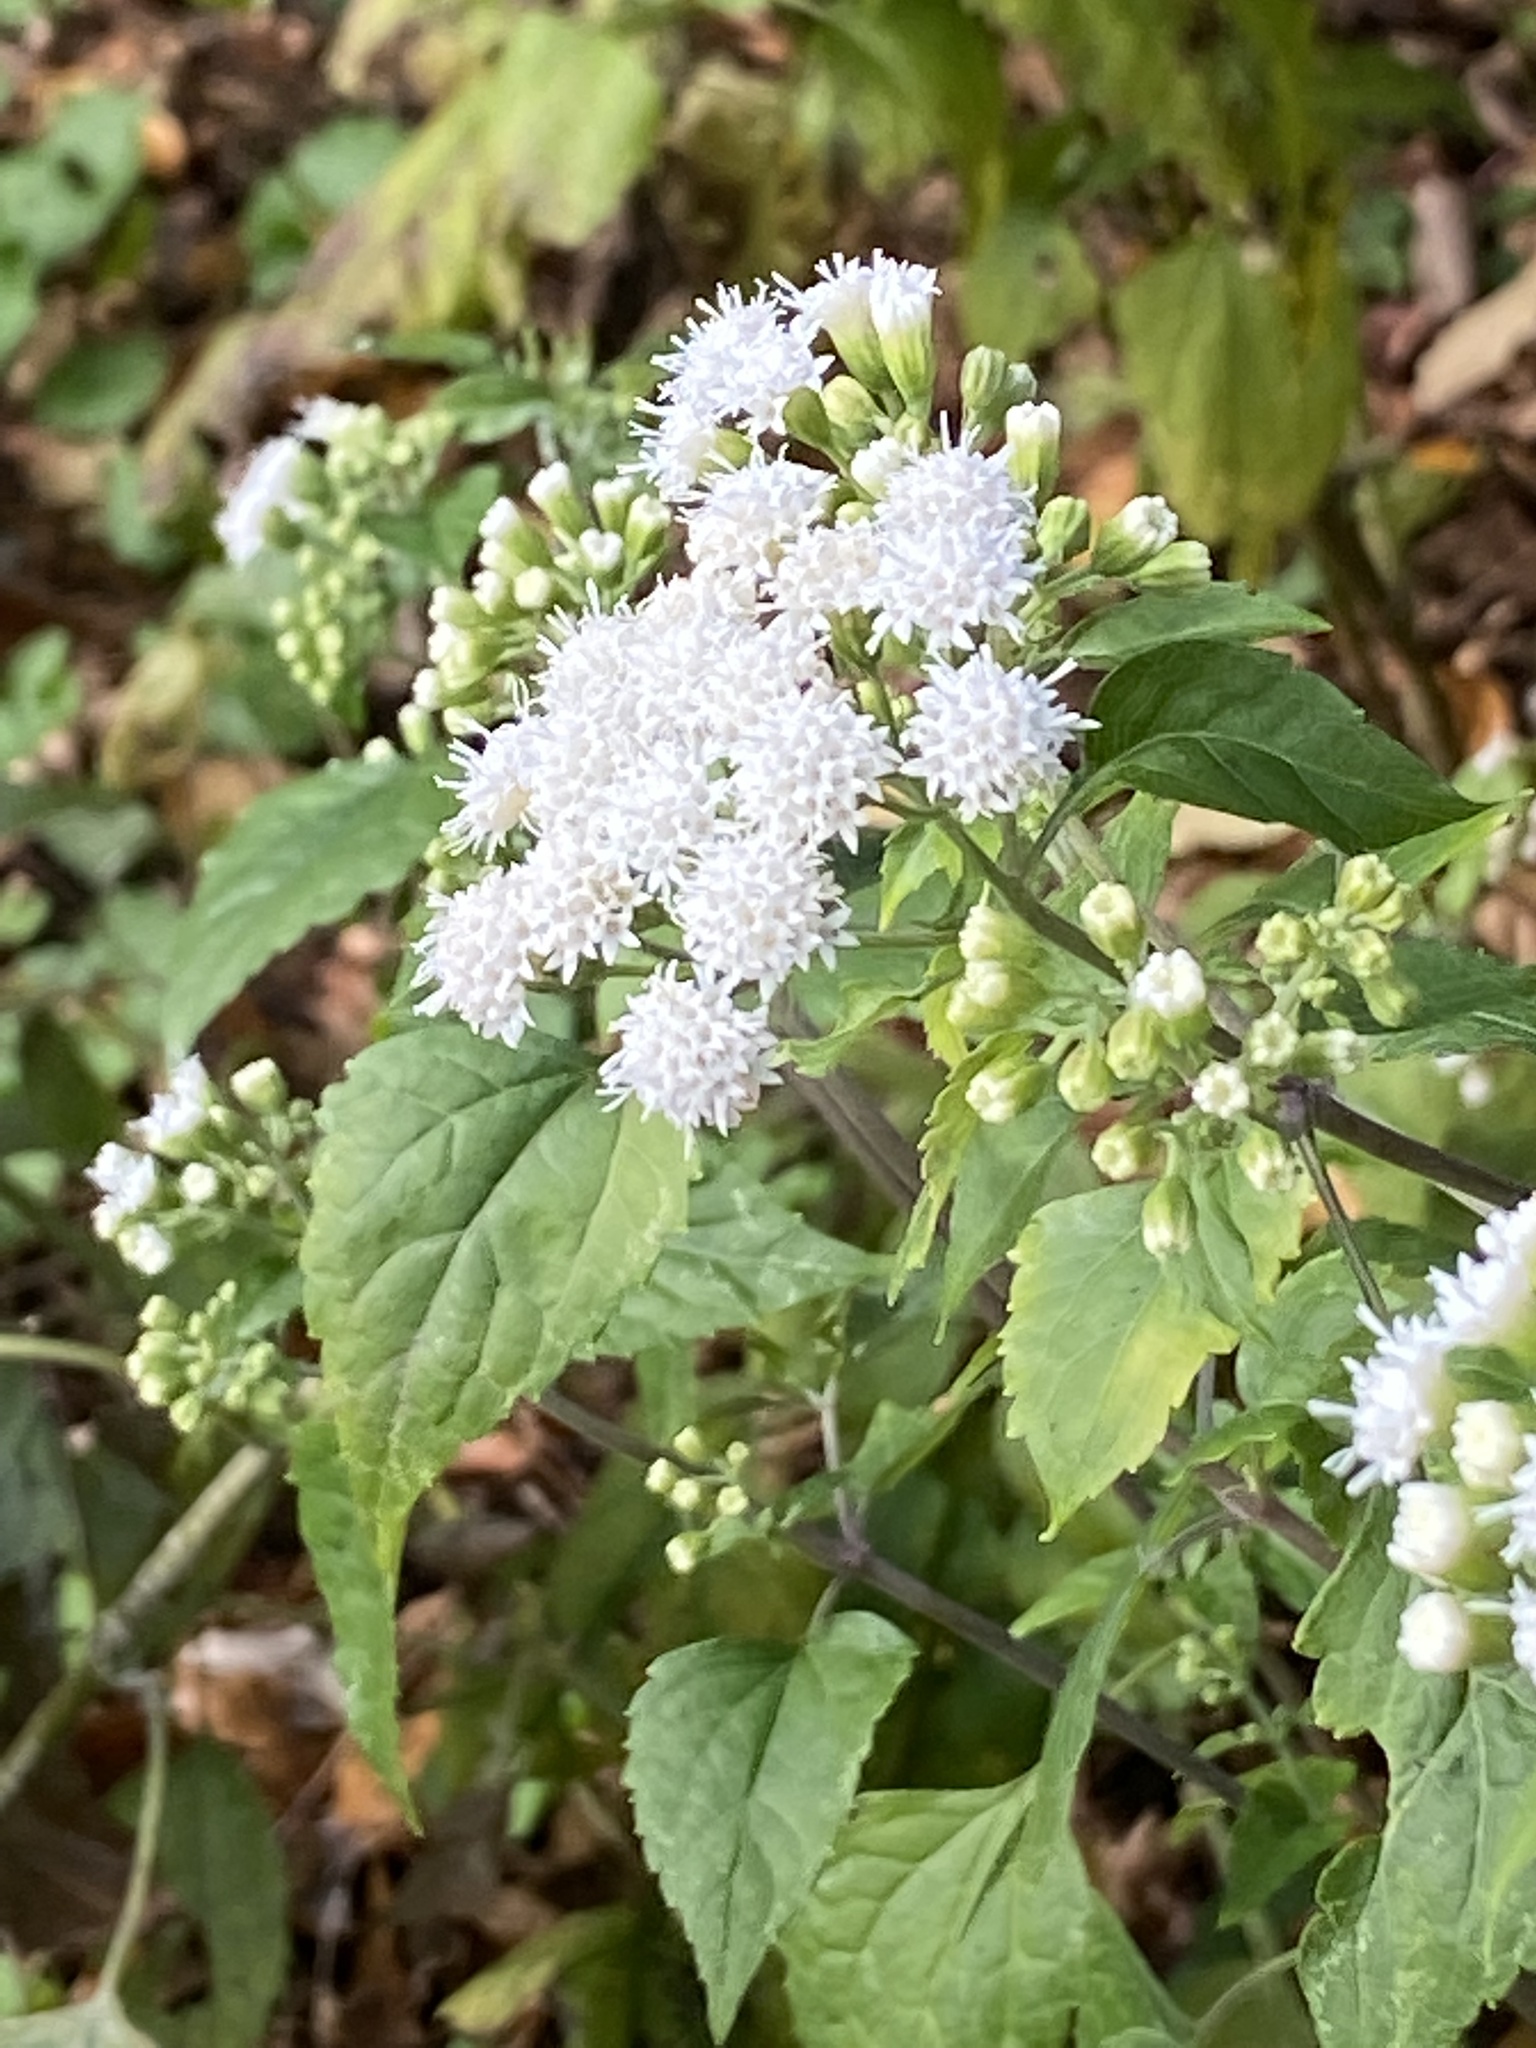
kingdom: Plantae
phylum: Tracheophyta
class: Magnoliopsida
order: Asterales
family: Asteraceae
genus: Ageratina
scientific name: Ageratina altissima
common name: White snakeroot
